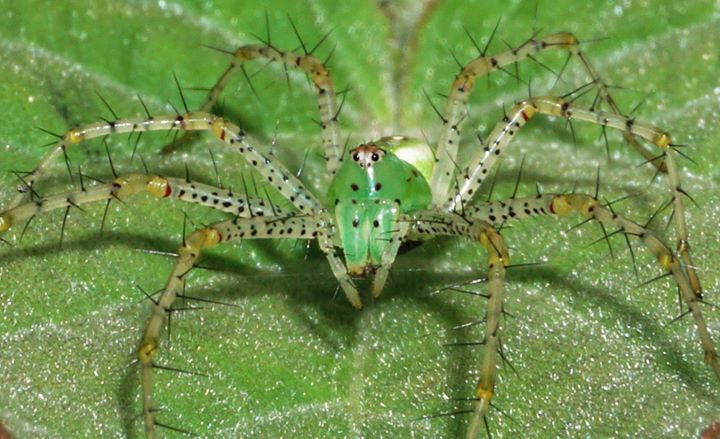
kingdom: Animalia
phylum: Arthropoda
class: Arachnida
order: Araneae
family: Oxyopidae
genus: Peucetia
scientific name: Peucetia viridans
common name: Lynx spiders
